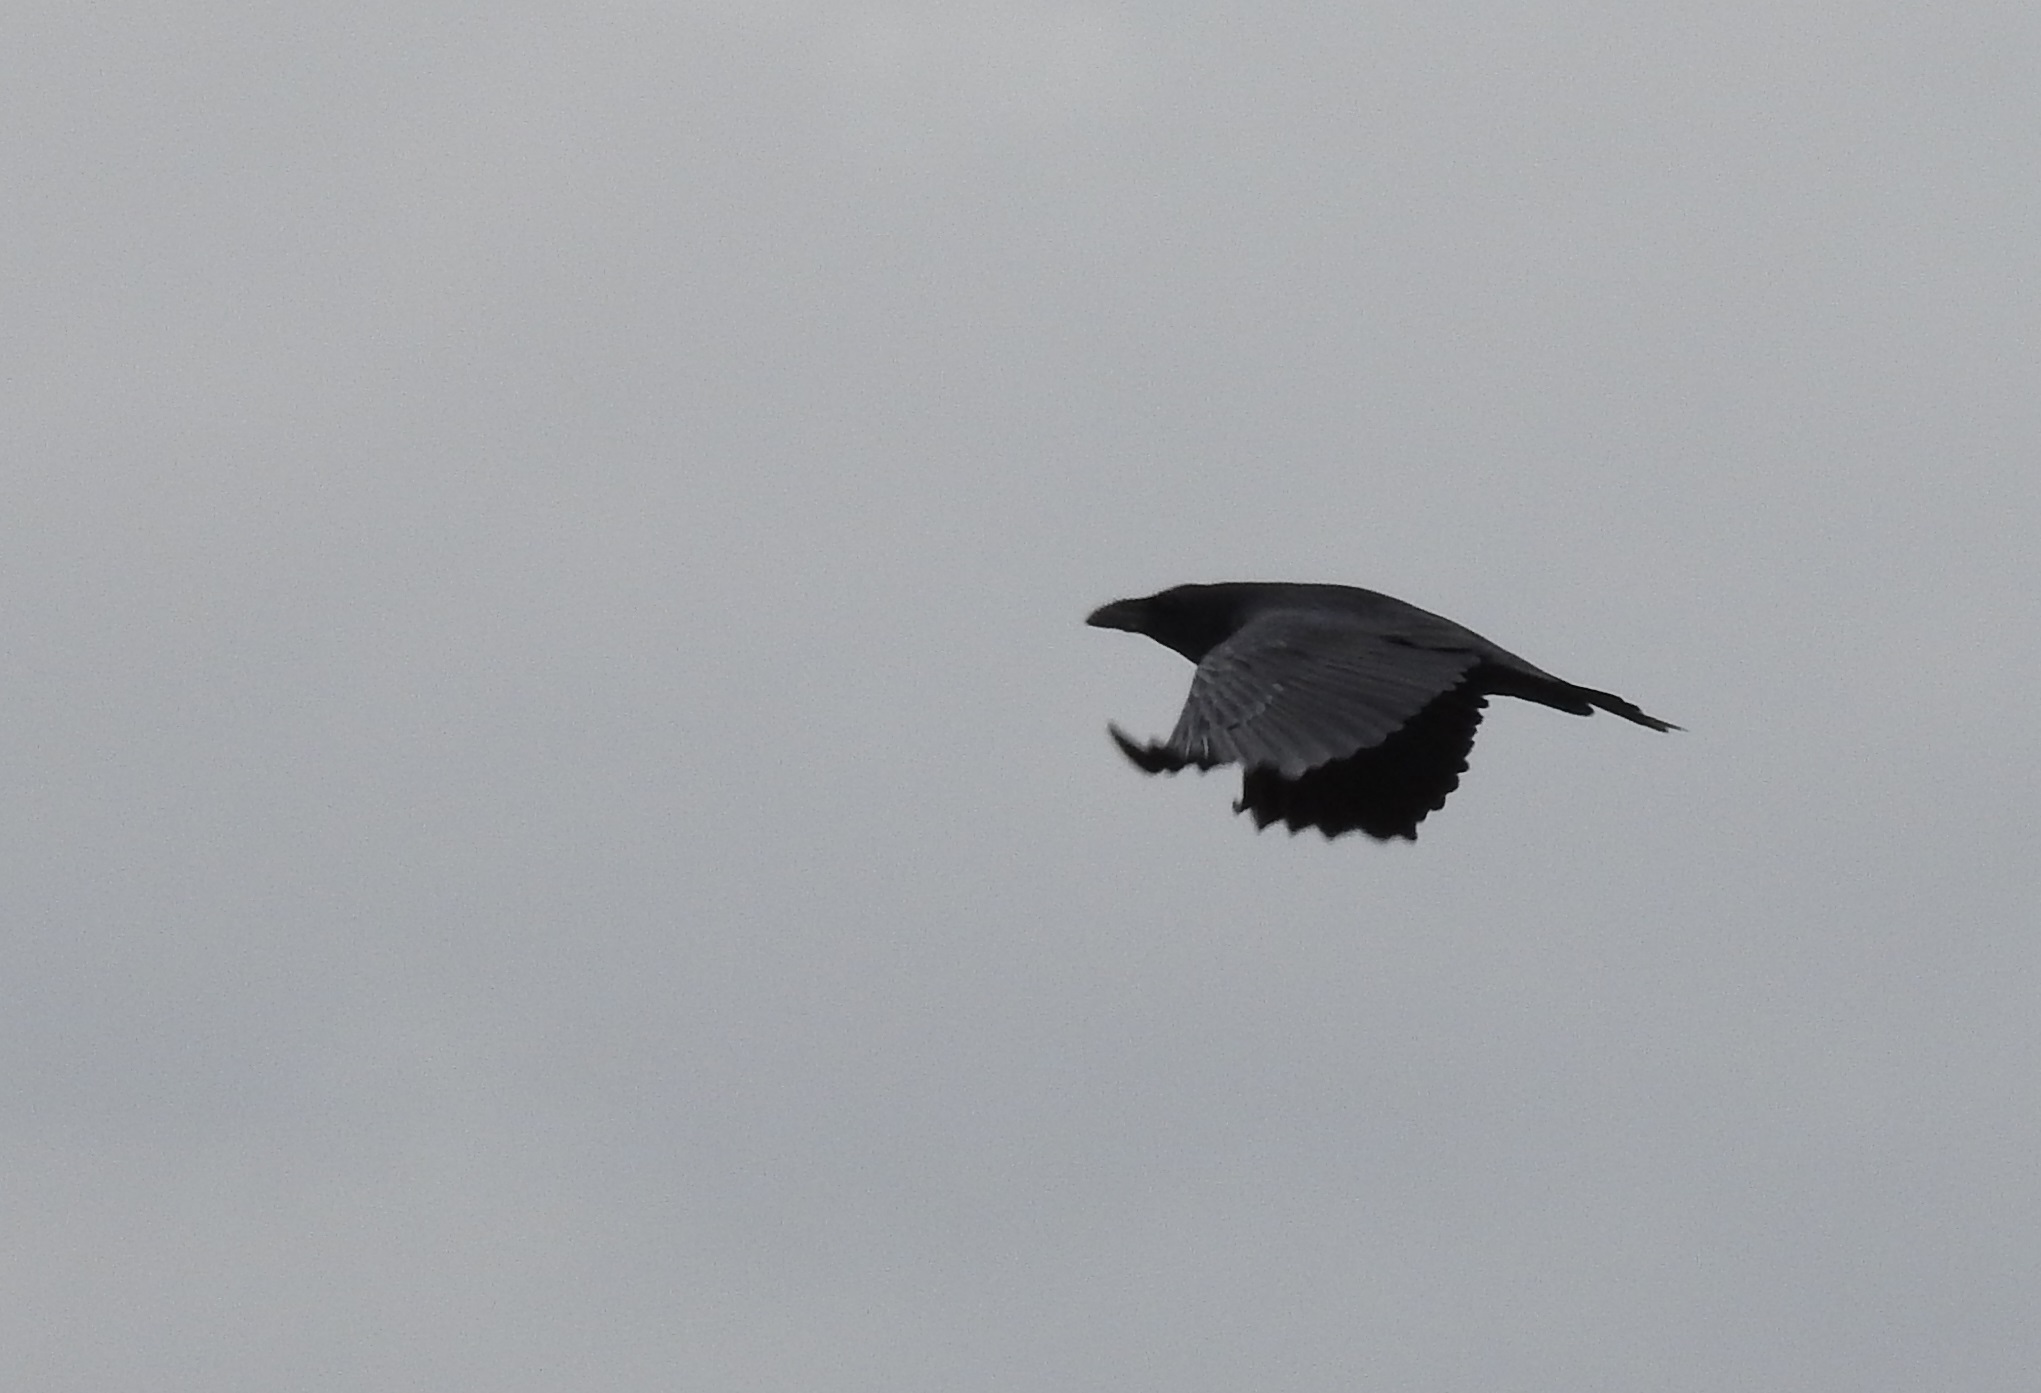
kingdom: Animalia
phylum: Chordata
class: Aves
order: Passeriformes
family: Corvidae
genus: Corvus
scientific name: Corvus corax
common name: Common raven
